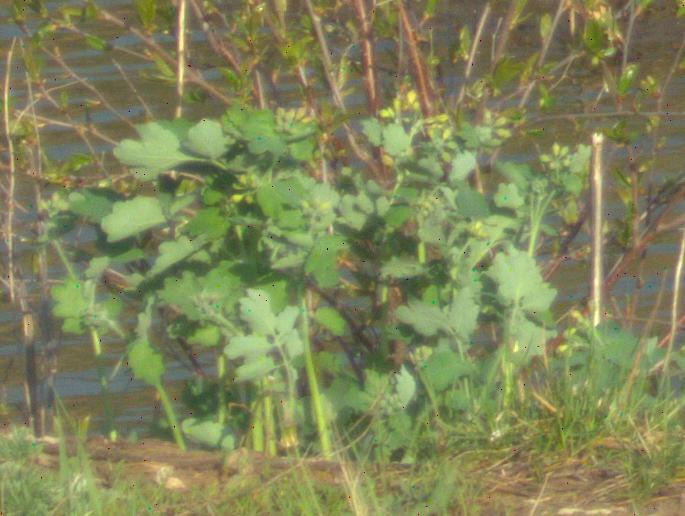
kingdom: Plantae
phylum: Tracheophyta
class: Magnoliopsida
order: Ranunculales
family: Papaveraceae
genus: Chelidonium
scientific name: Chelidonium majus
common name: Greater celandine
